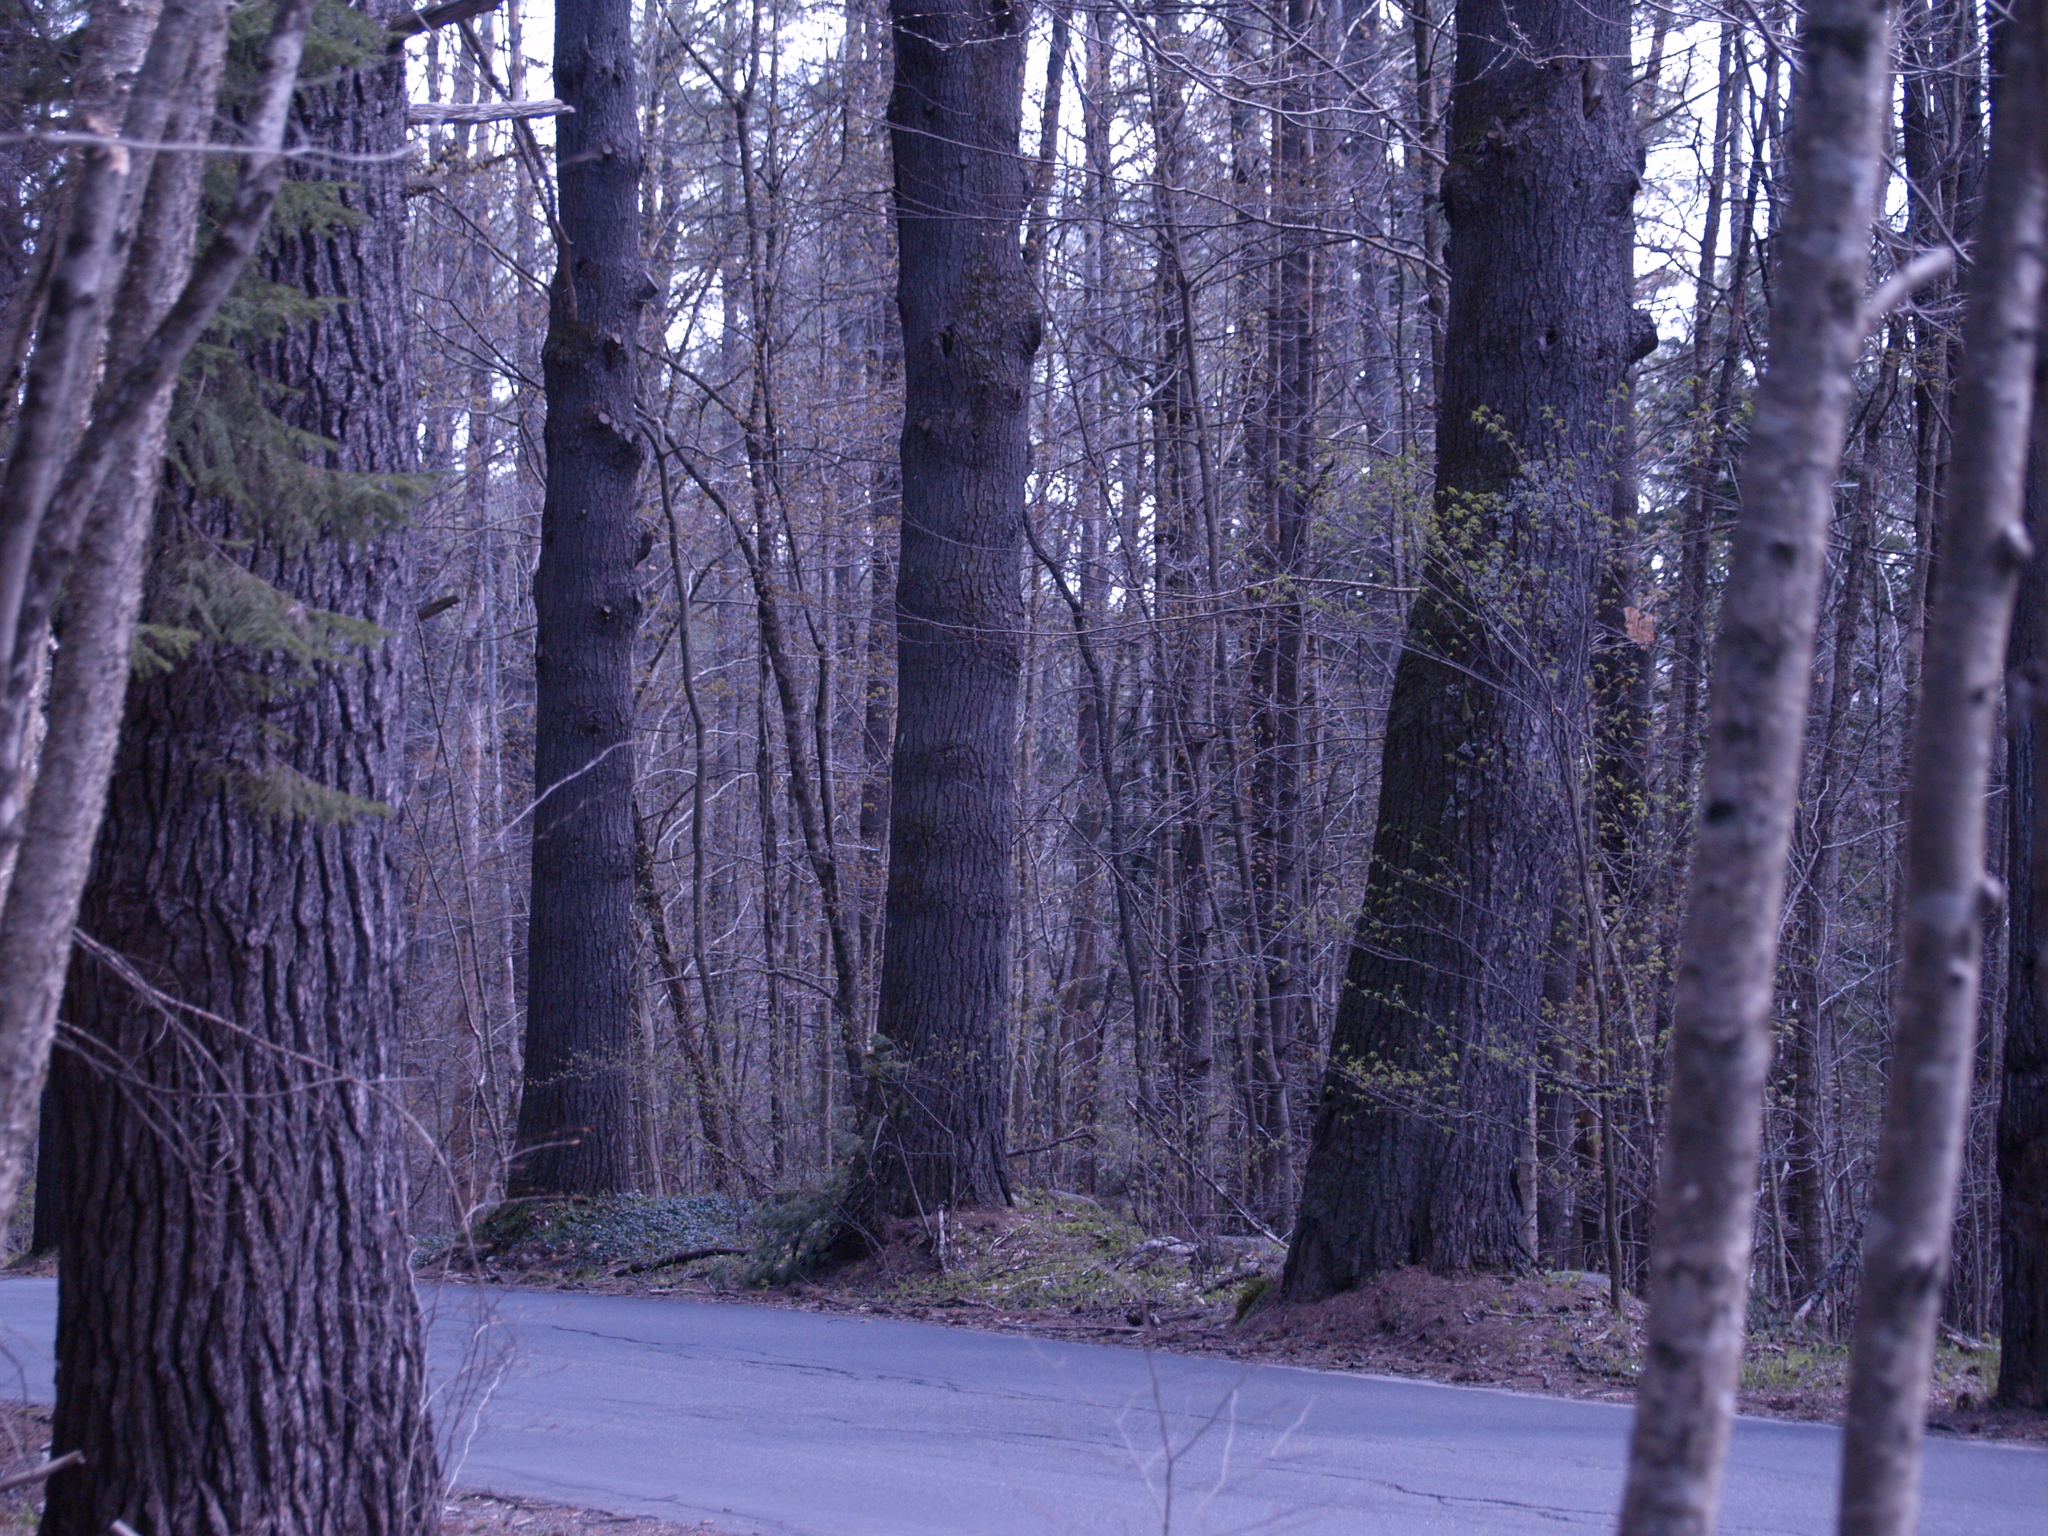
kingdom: Plantae
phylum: Tracheophyta
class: Pinopsida
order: Pinales
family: Pinaceae
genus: Pinus
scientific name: Pinus strobus
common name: Weymouth pine
